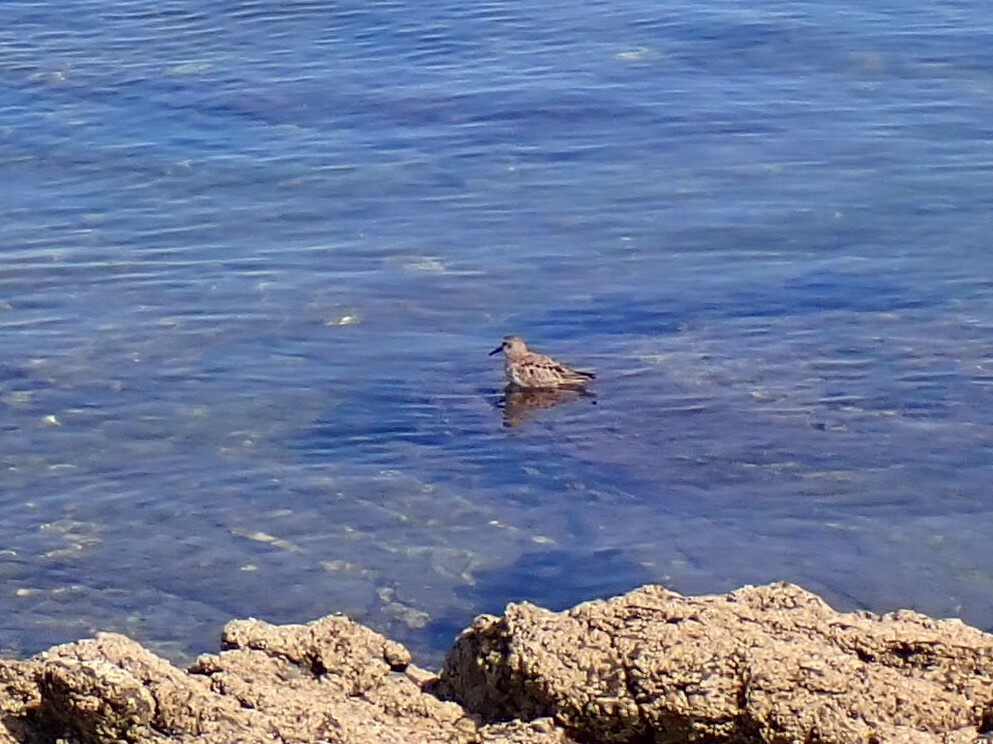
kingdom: Animalia
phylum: Chordata
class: Aves
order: Charadriiformes
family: Scolopacidae
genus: Calidris
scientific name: Calidris alpina
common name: Dunlin
